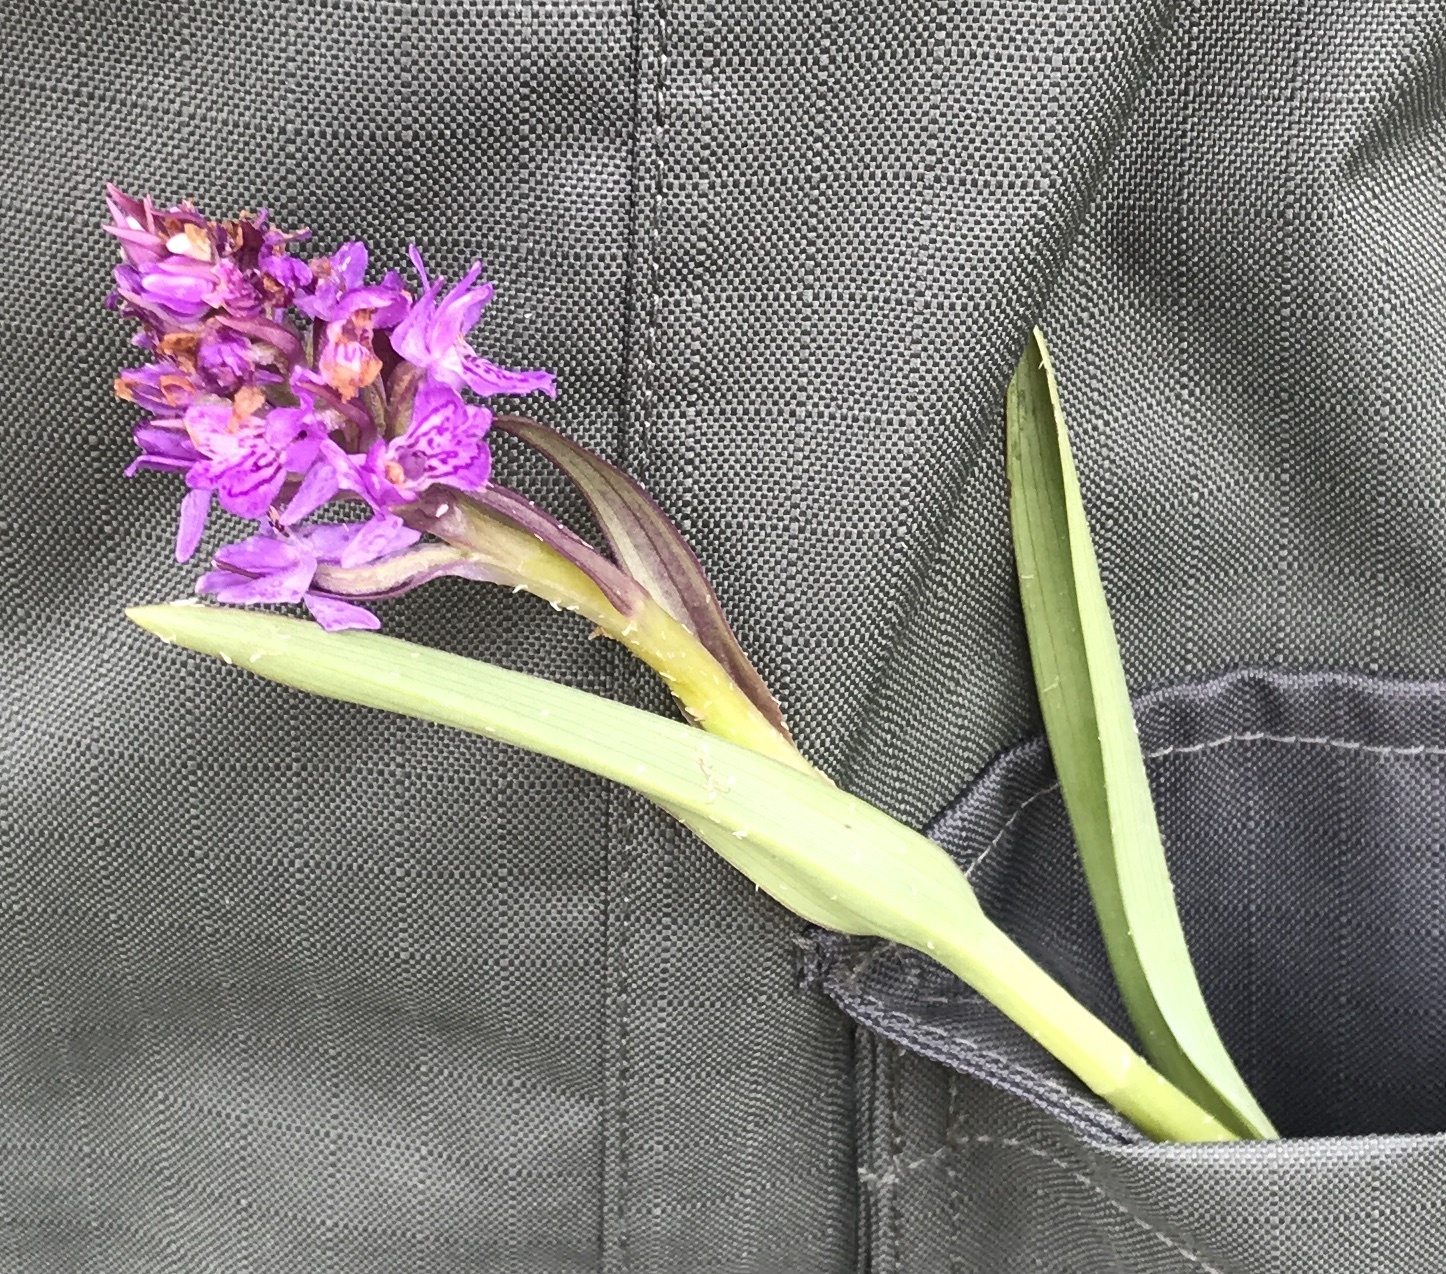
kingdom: Plantae
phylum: Tracheophyta
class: Liliopsida
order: Asparagales
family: Orchidaceae
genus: Dactylorhiza
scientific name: Dactylorhiza majalis
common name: Marsh orchid
